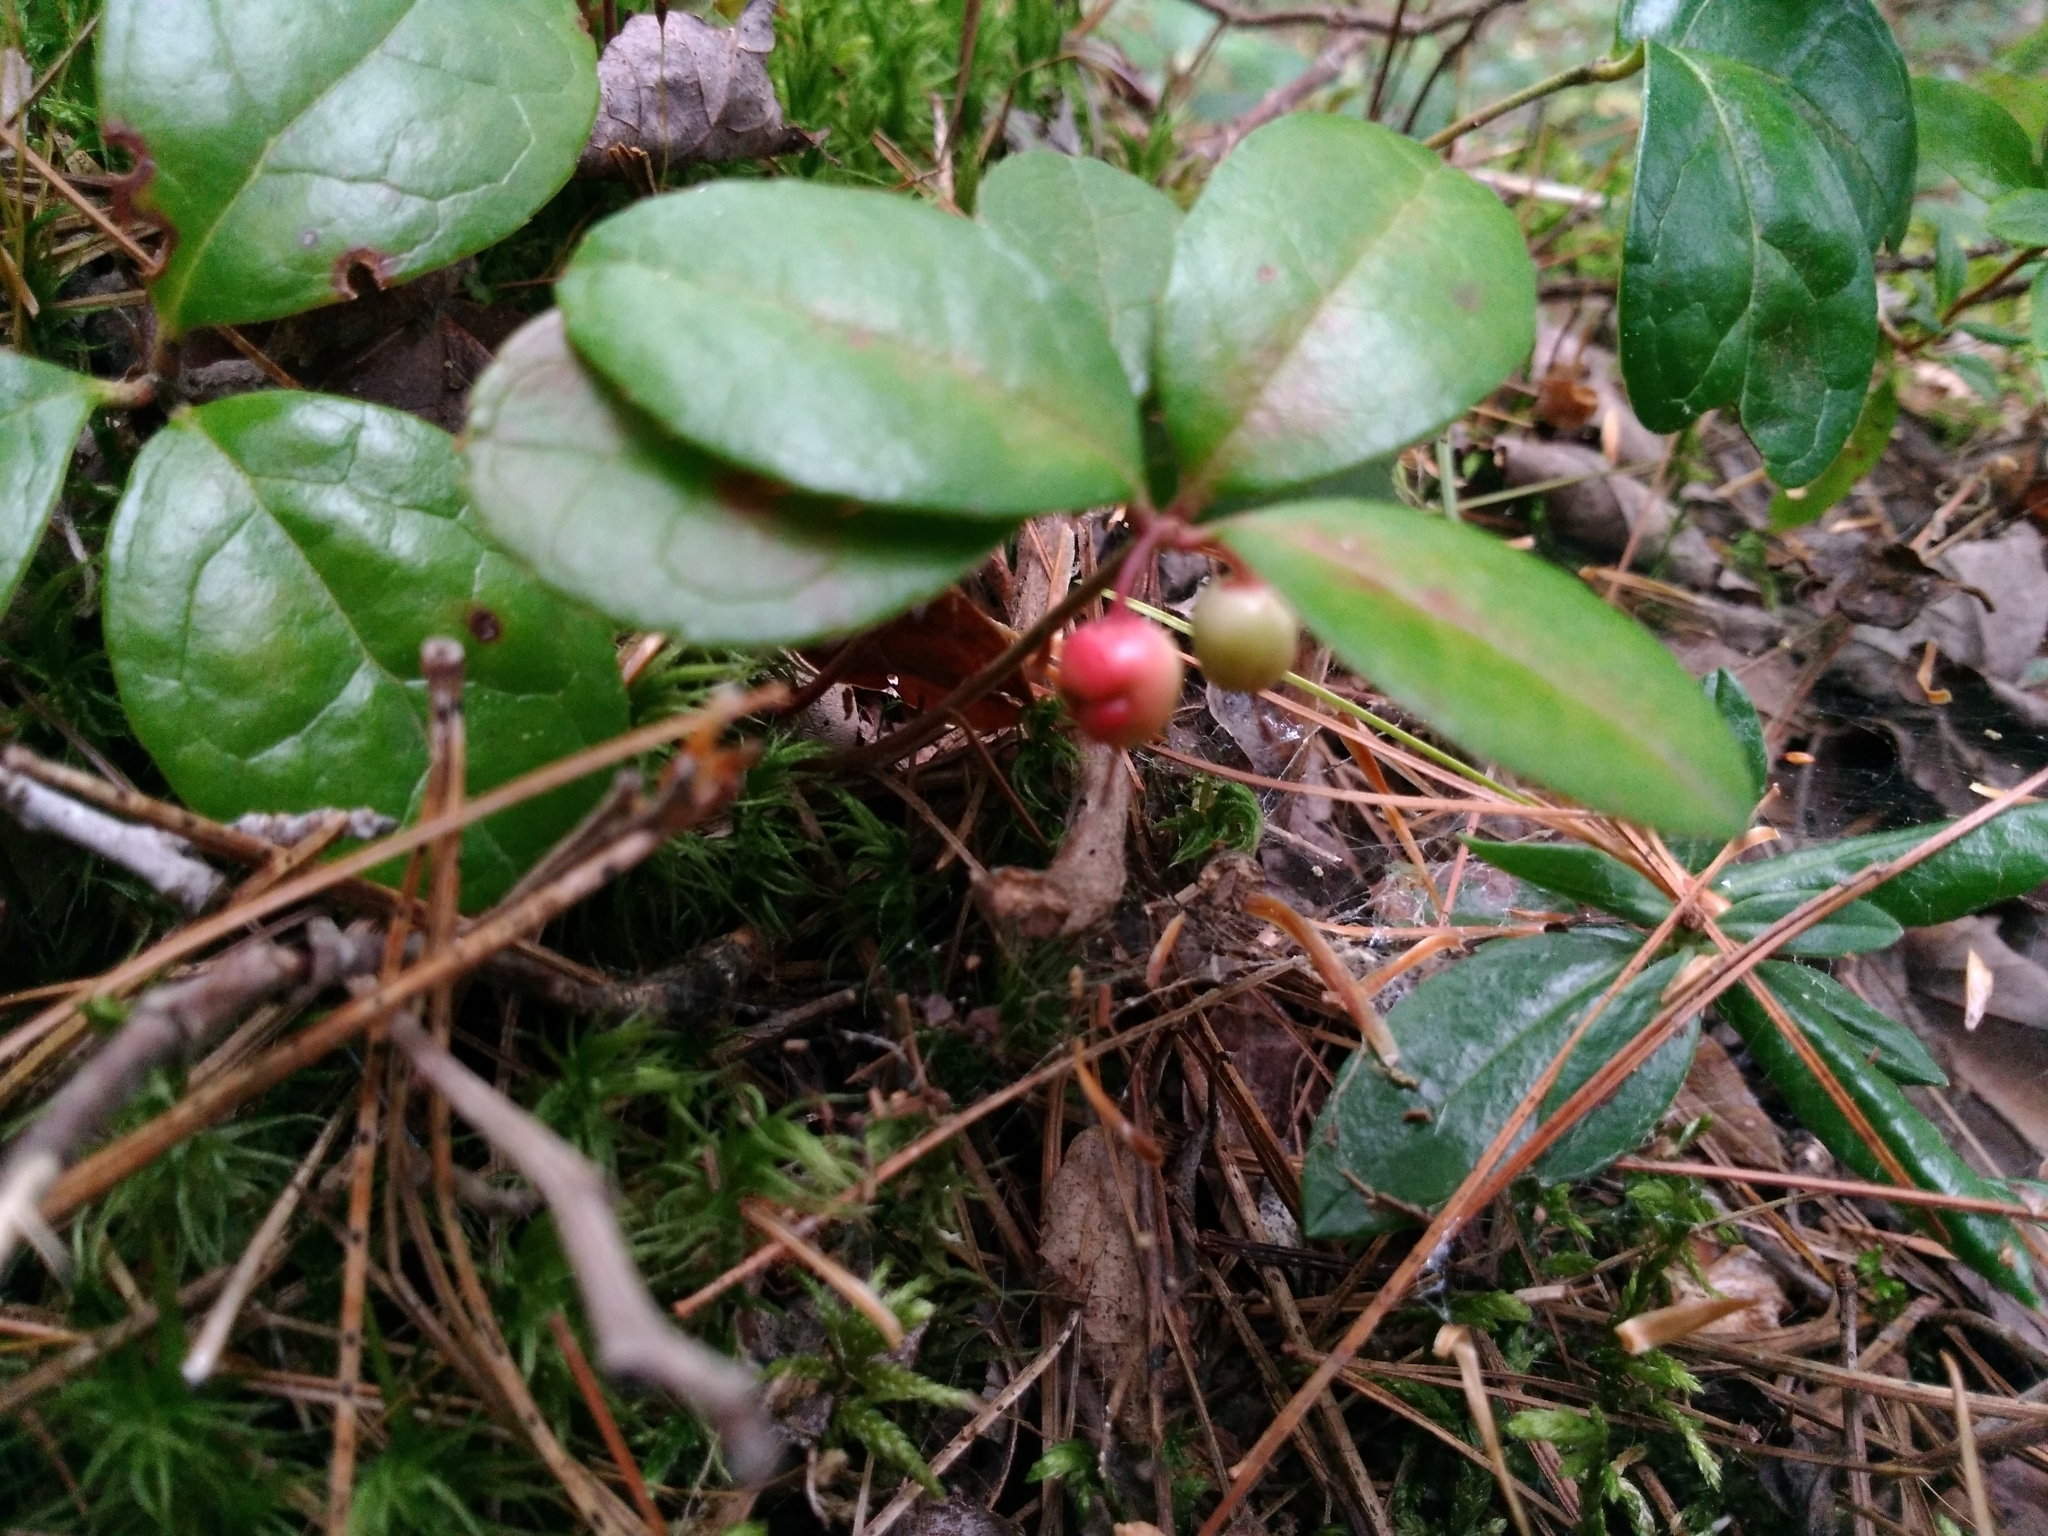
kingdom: Plantae
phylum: Tracheophyta
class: Magnoliopsida
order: Ericales
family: Ericaceae
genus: Gaultheria
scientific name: Gaultheria procumbens
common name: Checkerberry
